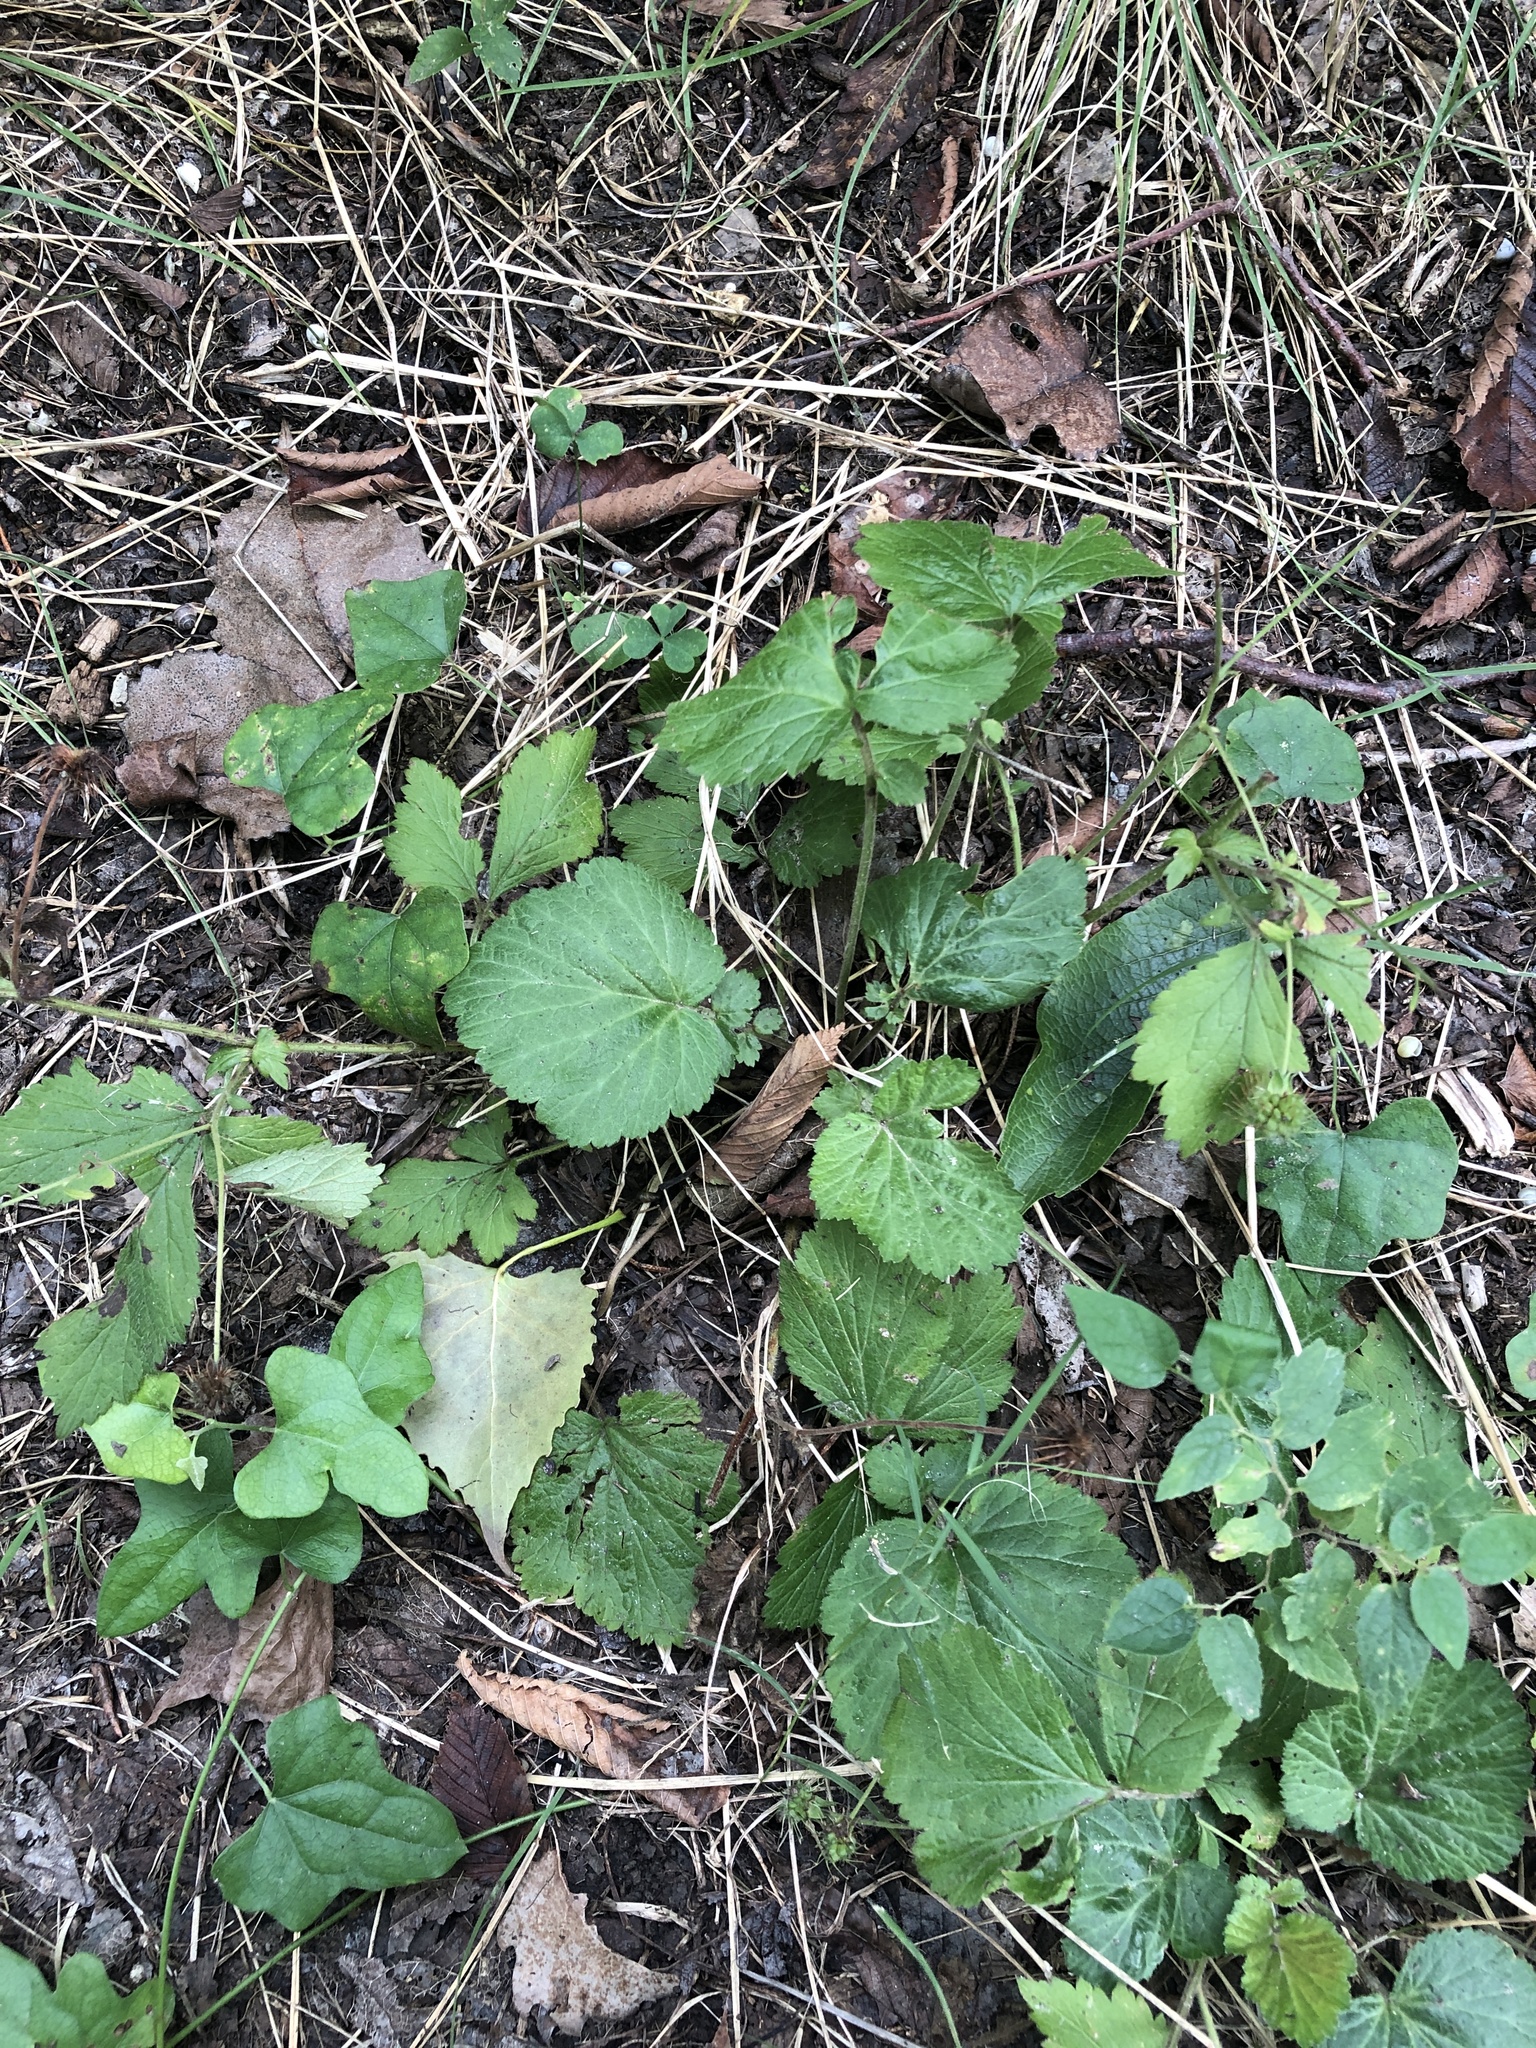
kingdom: Plantae
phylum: Tracheophyta
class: Magnoliopsida
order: Rosales
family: Rosaceae
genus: Geum
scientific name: Geum canadense
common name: White avens
